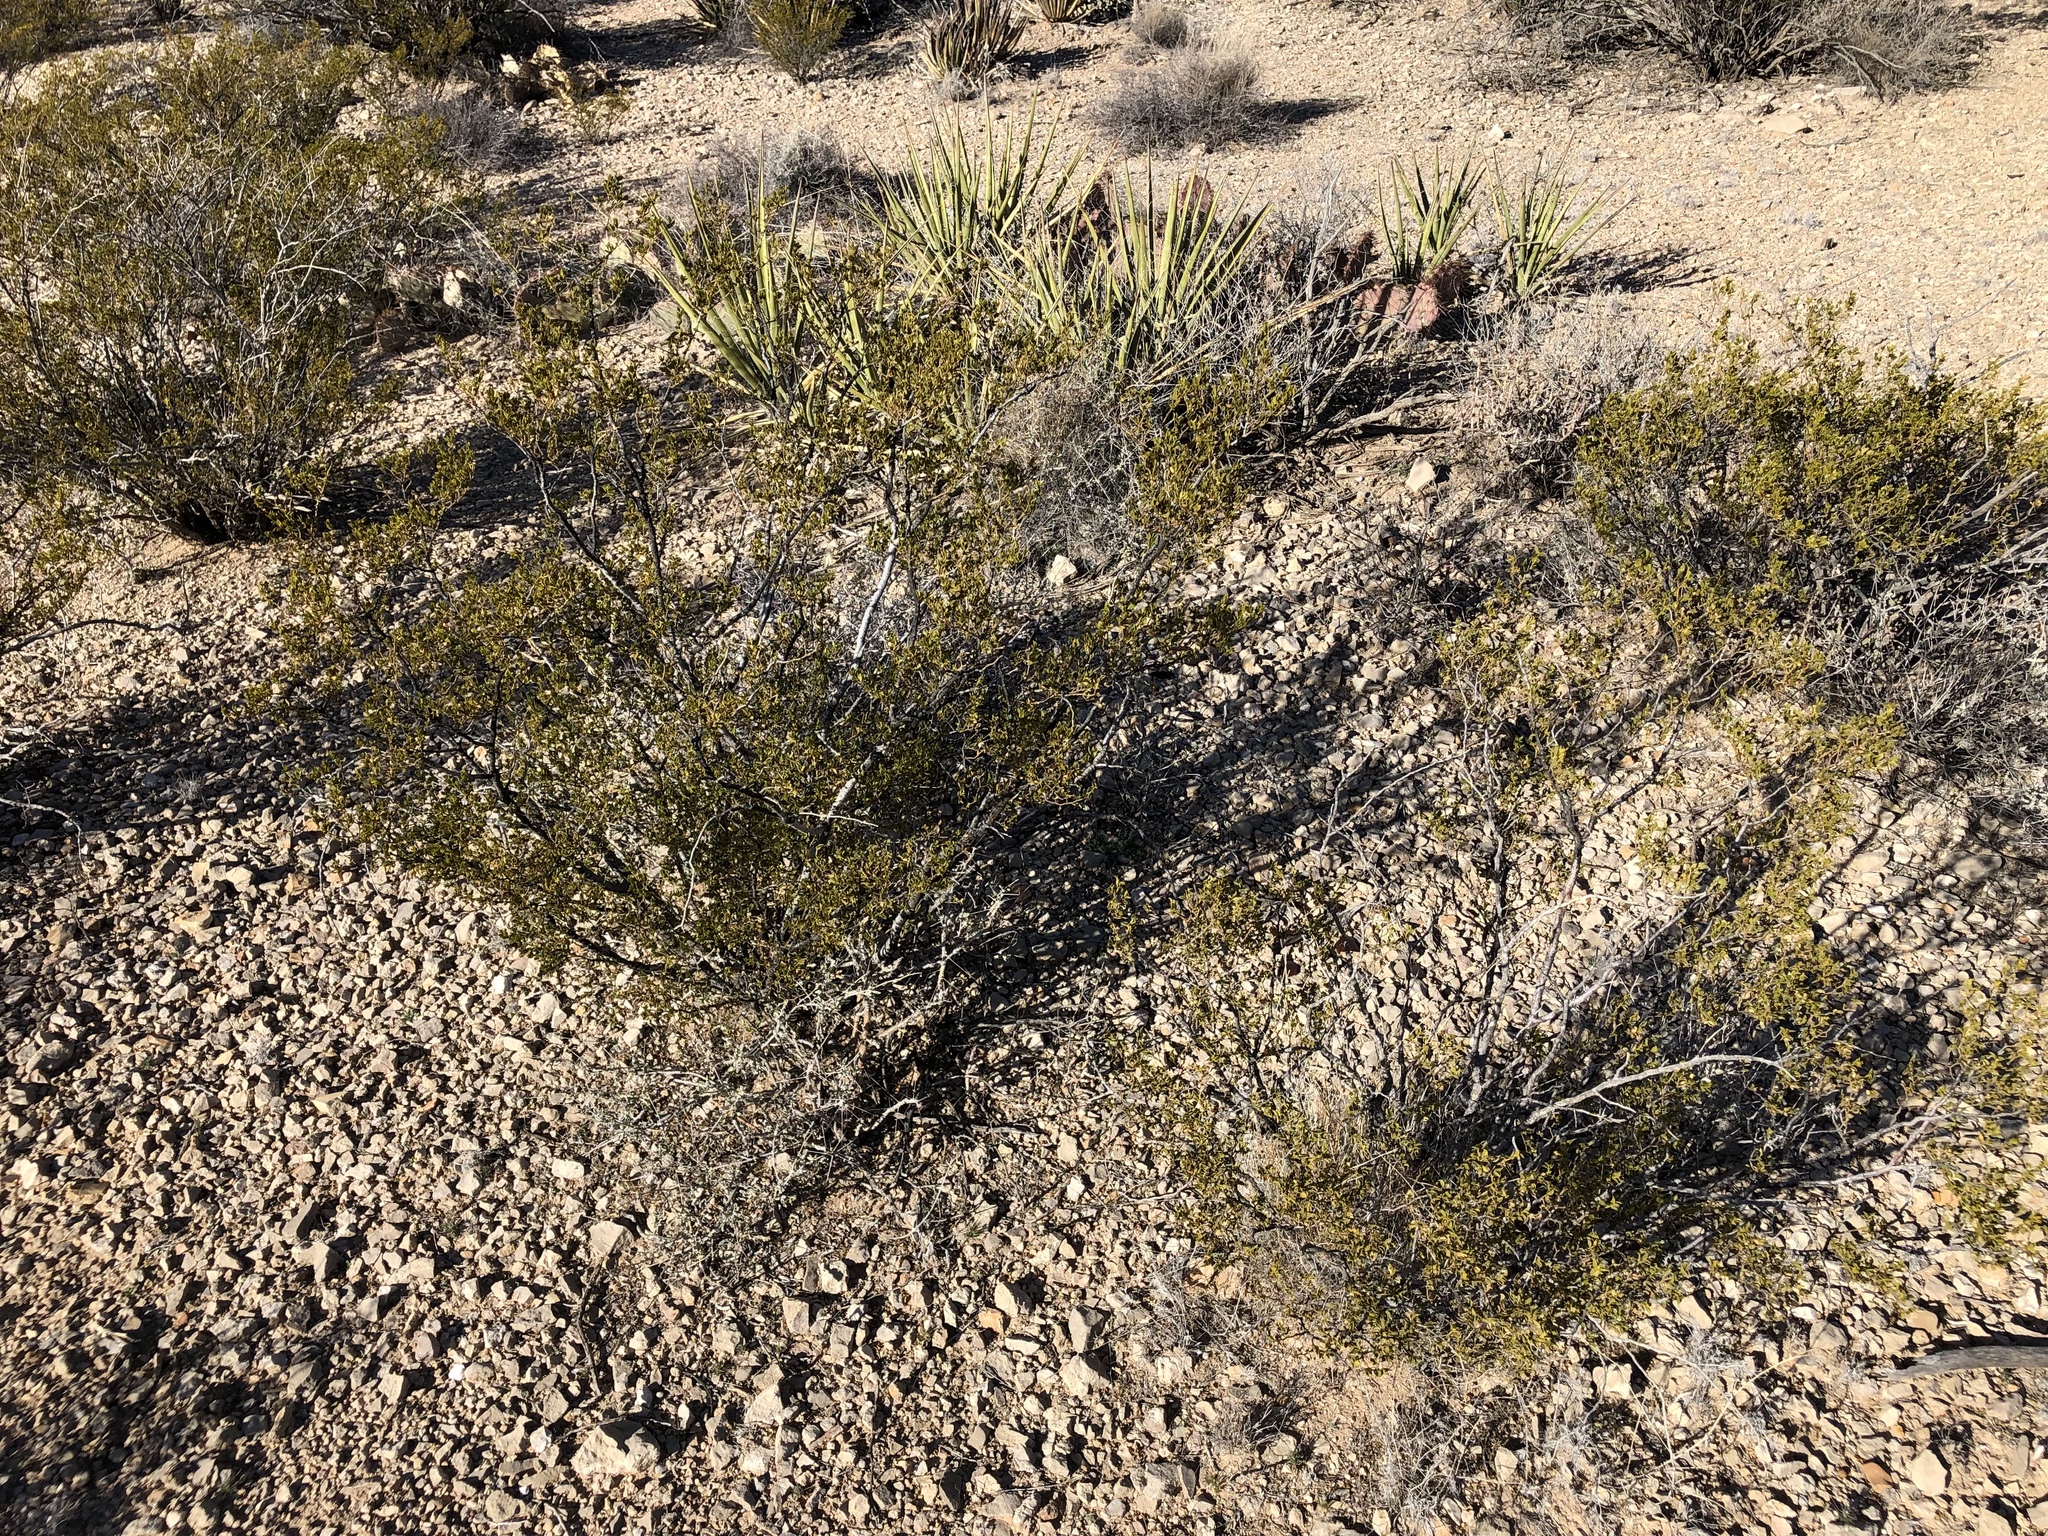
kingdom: Plantae
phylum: Tracheophyta
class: Magnoliopsida
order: Zygophyllales
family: Zygophyllaceae
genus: Larrea
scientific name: Larrea tridentata
